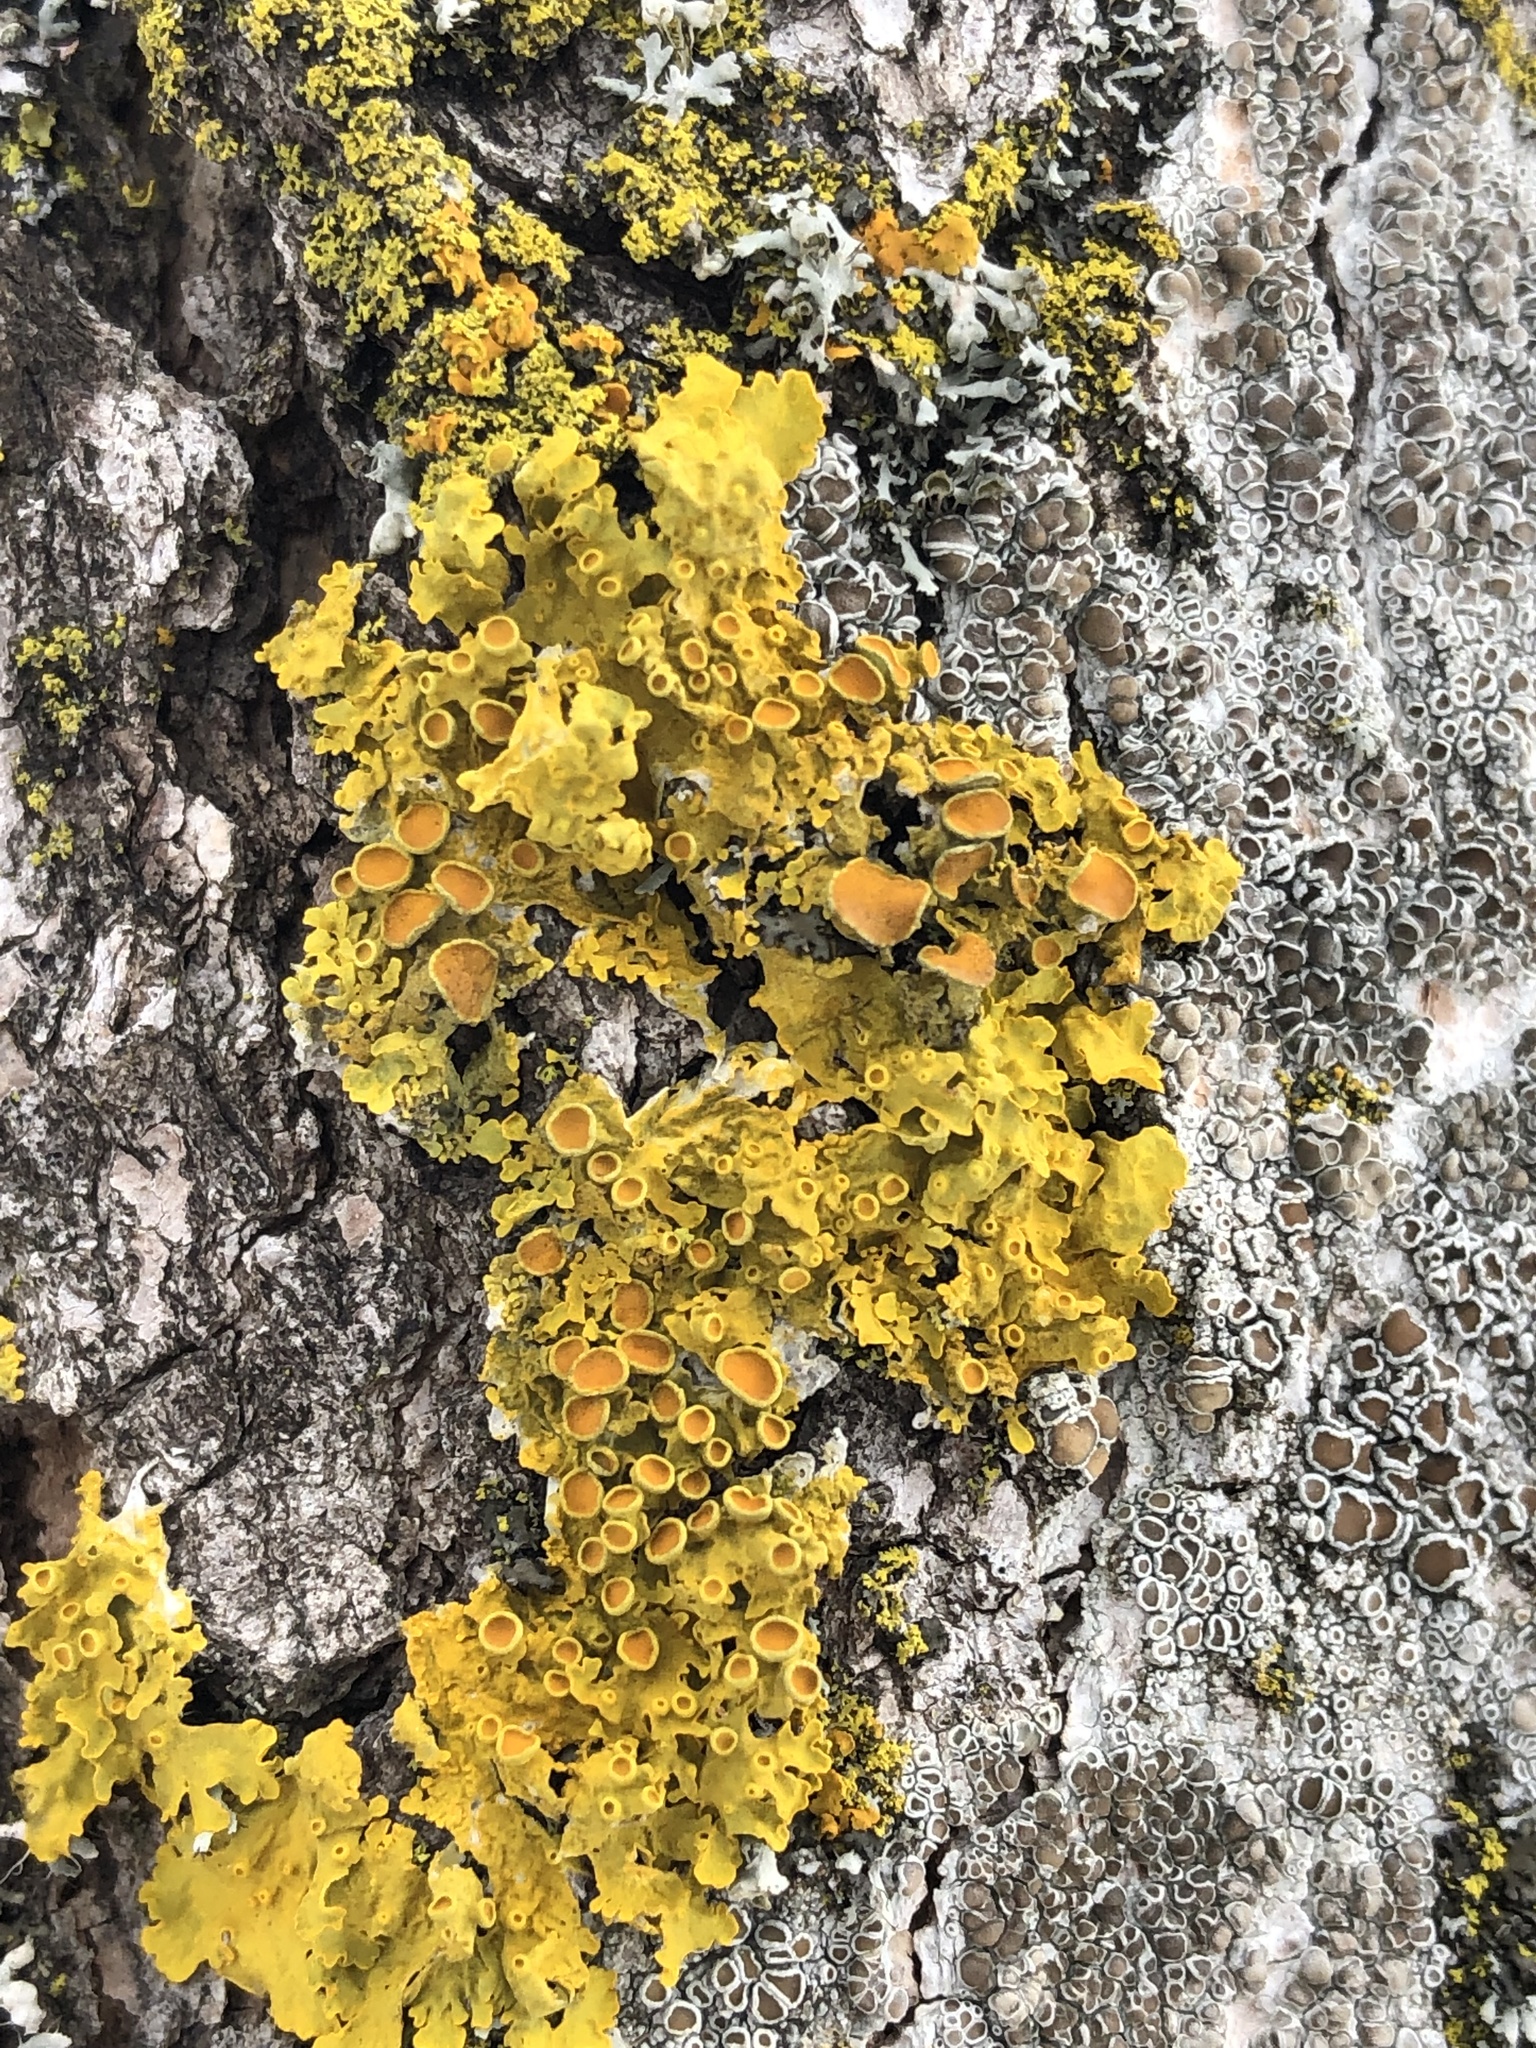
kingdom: Fungi
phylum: Ascomycota
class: Lecanoromycetes
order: Teloschistales
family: Teloschistaceae
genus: Xanthoria
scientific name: Xanthoria parietina
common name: Common orange lichen
